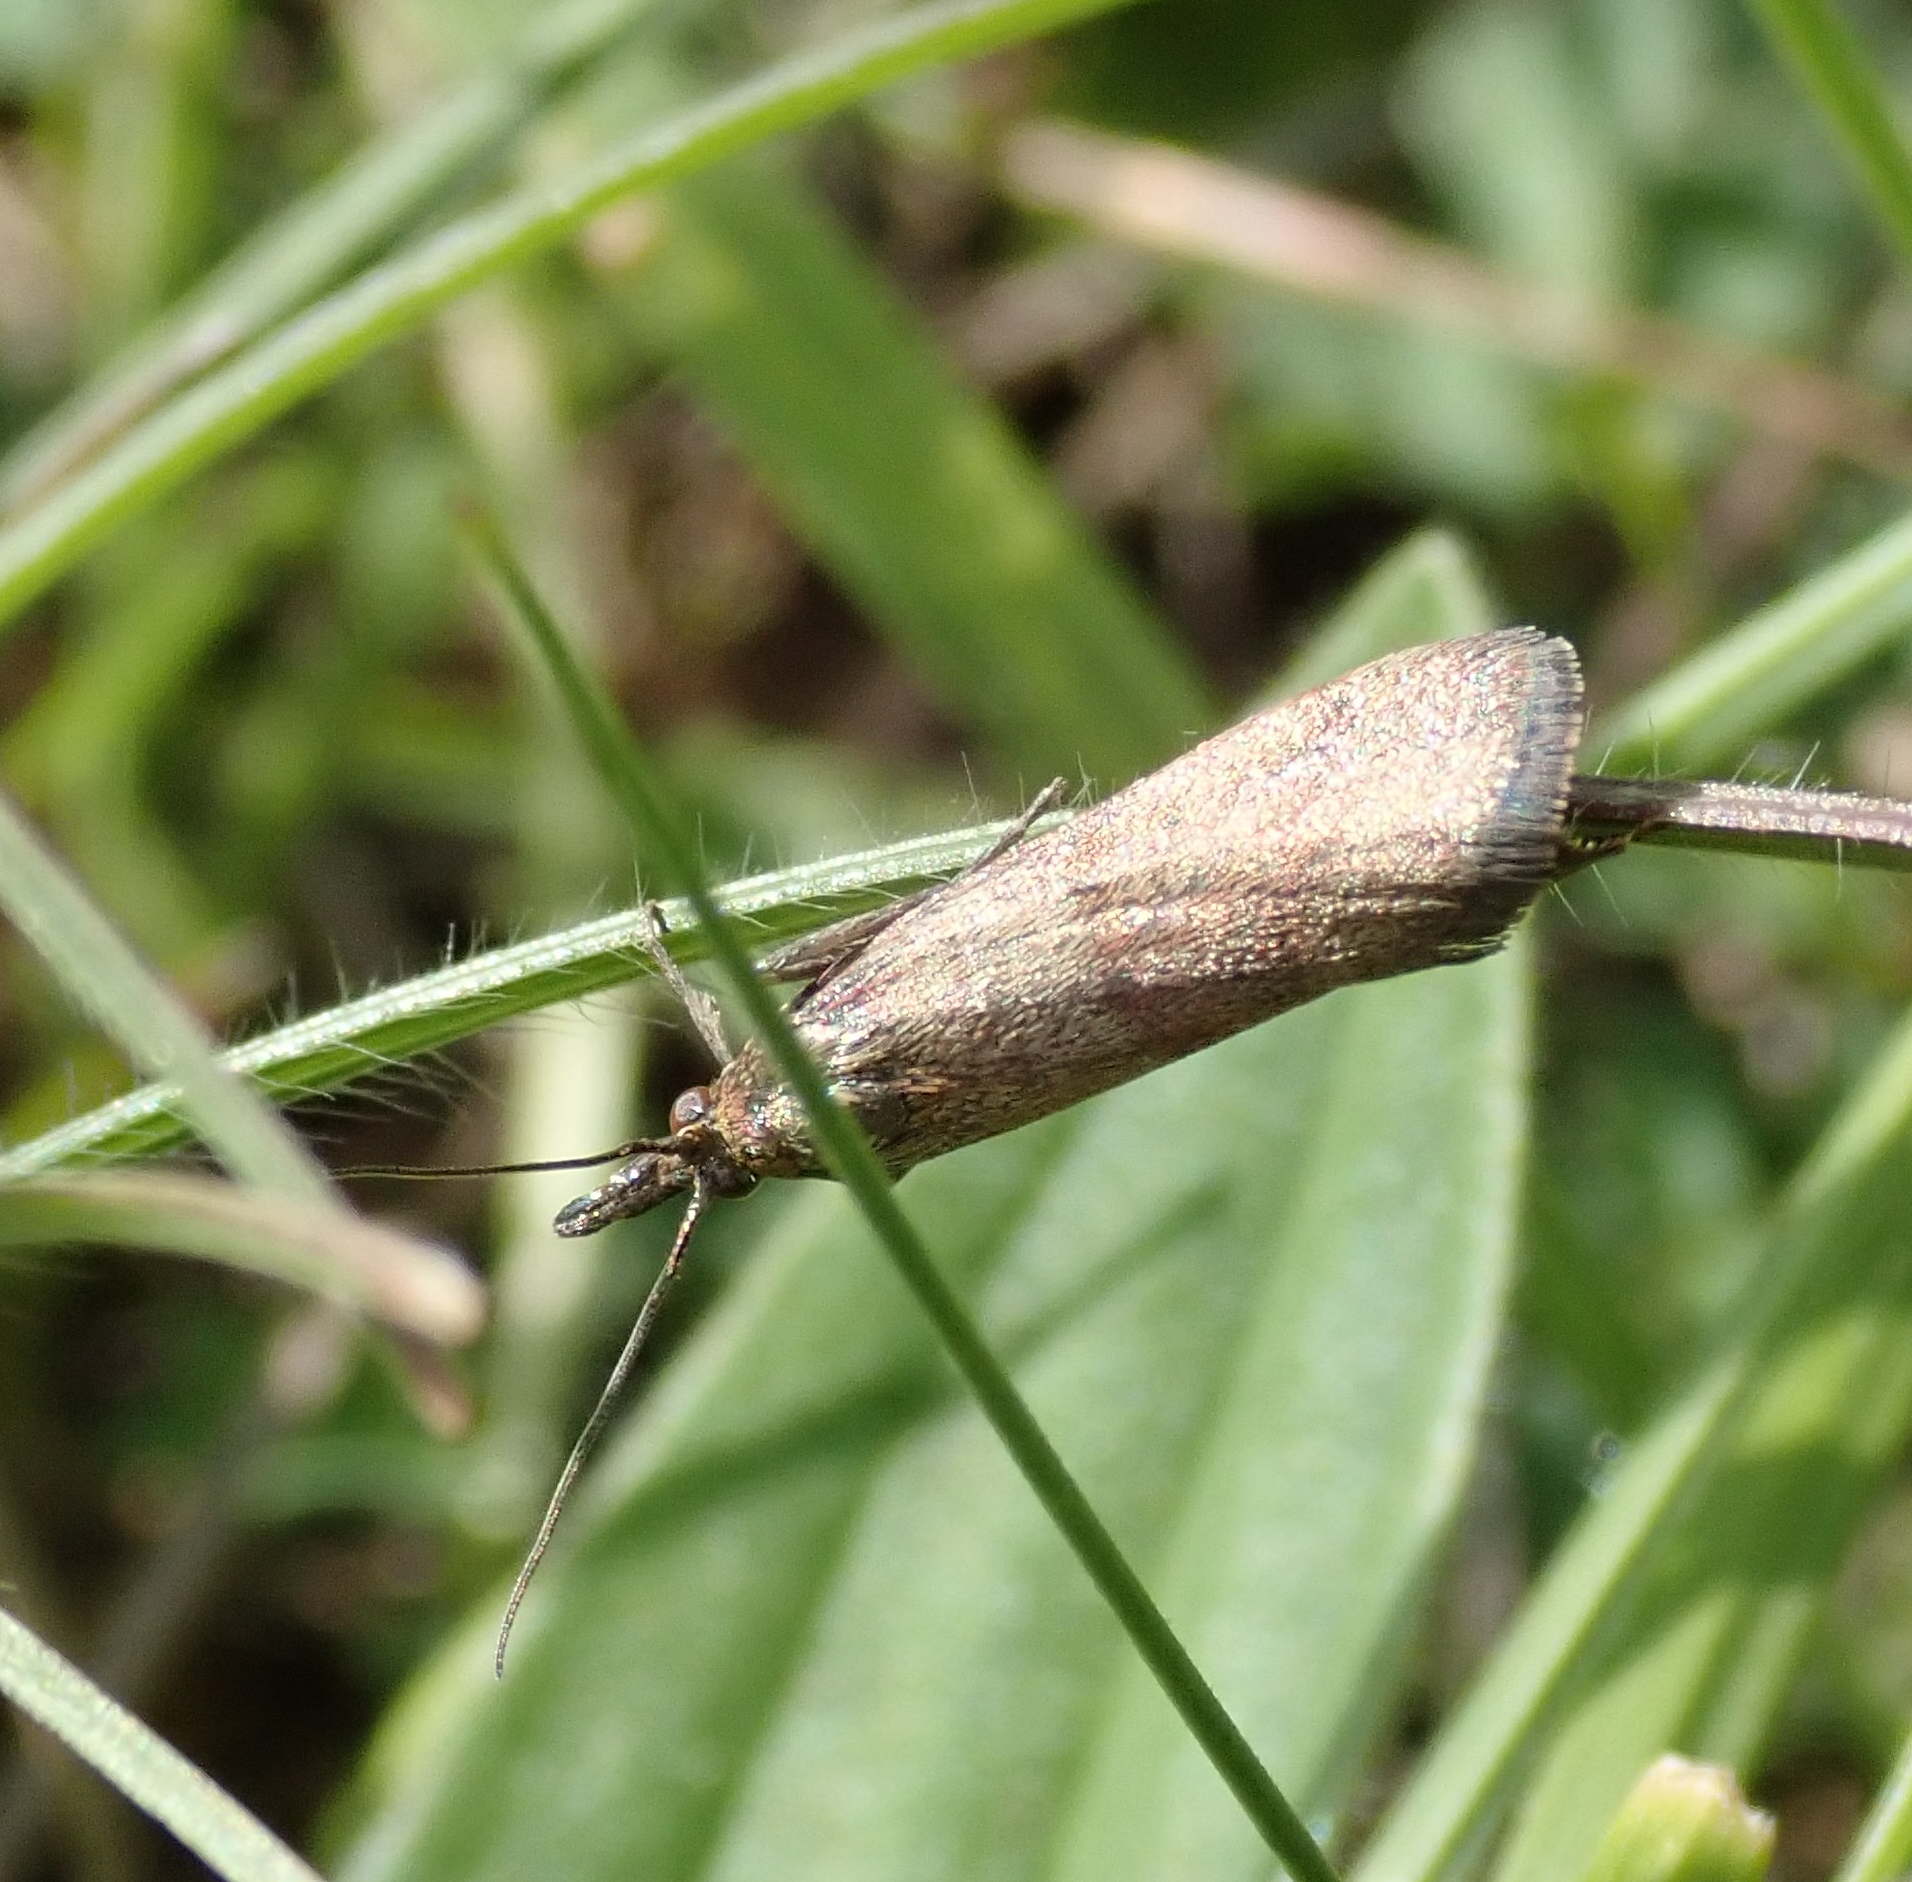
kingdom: Animalia
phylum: Arthropoda
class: Insecta
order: Lepidoptera
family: Pyralidae
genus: Hypochalcia
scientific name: Hypochalcia ahenella
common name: Dingy knot-horn
